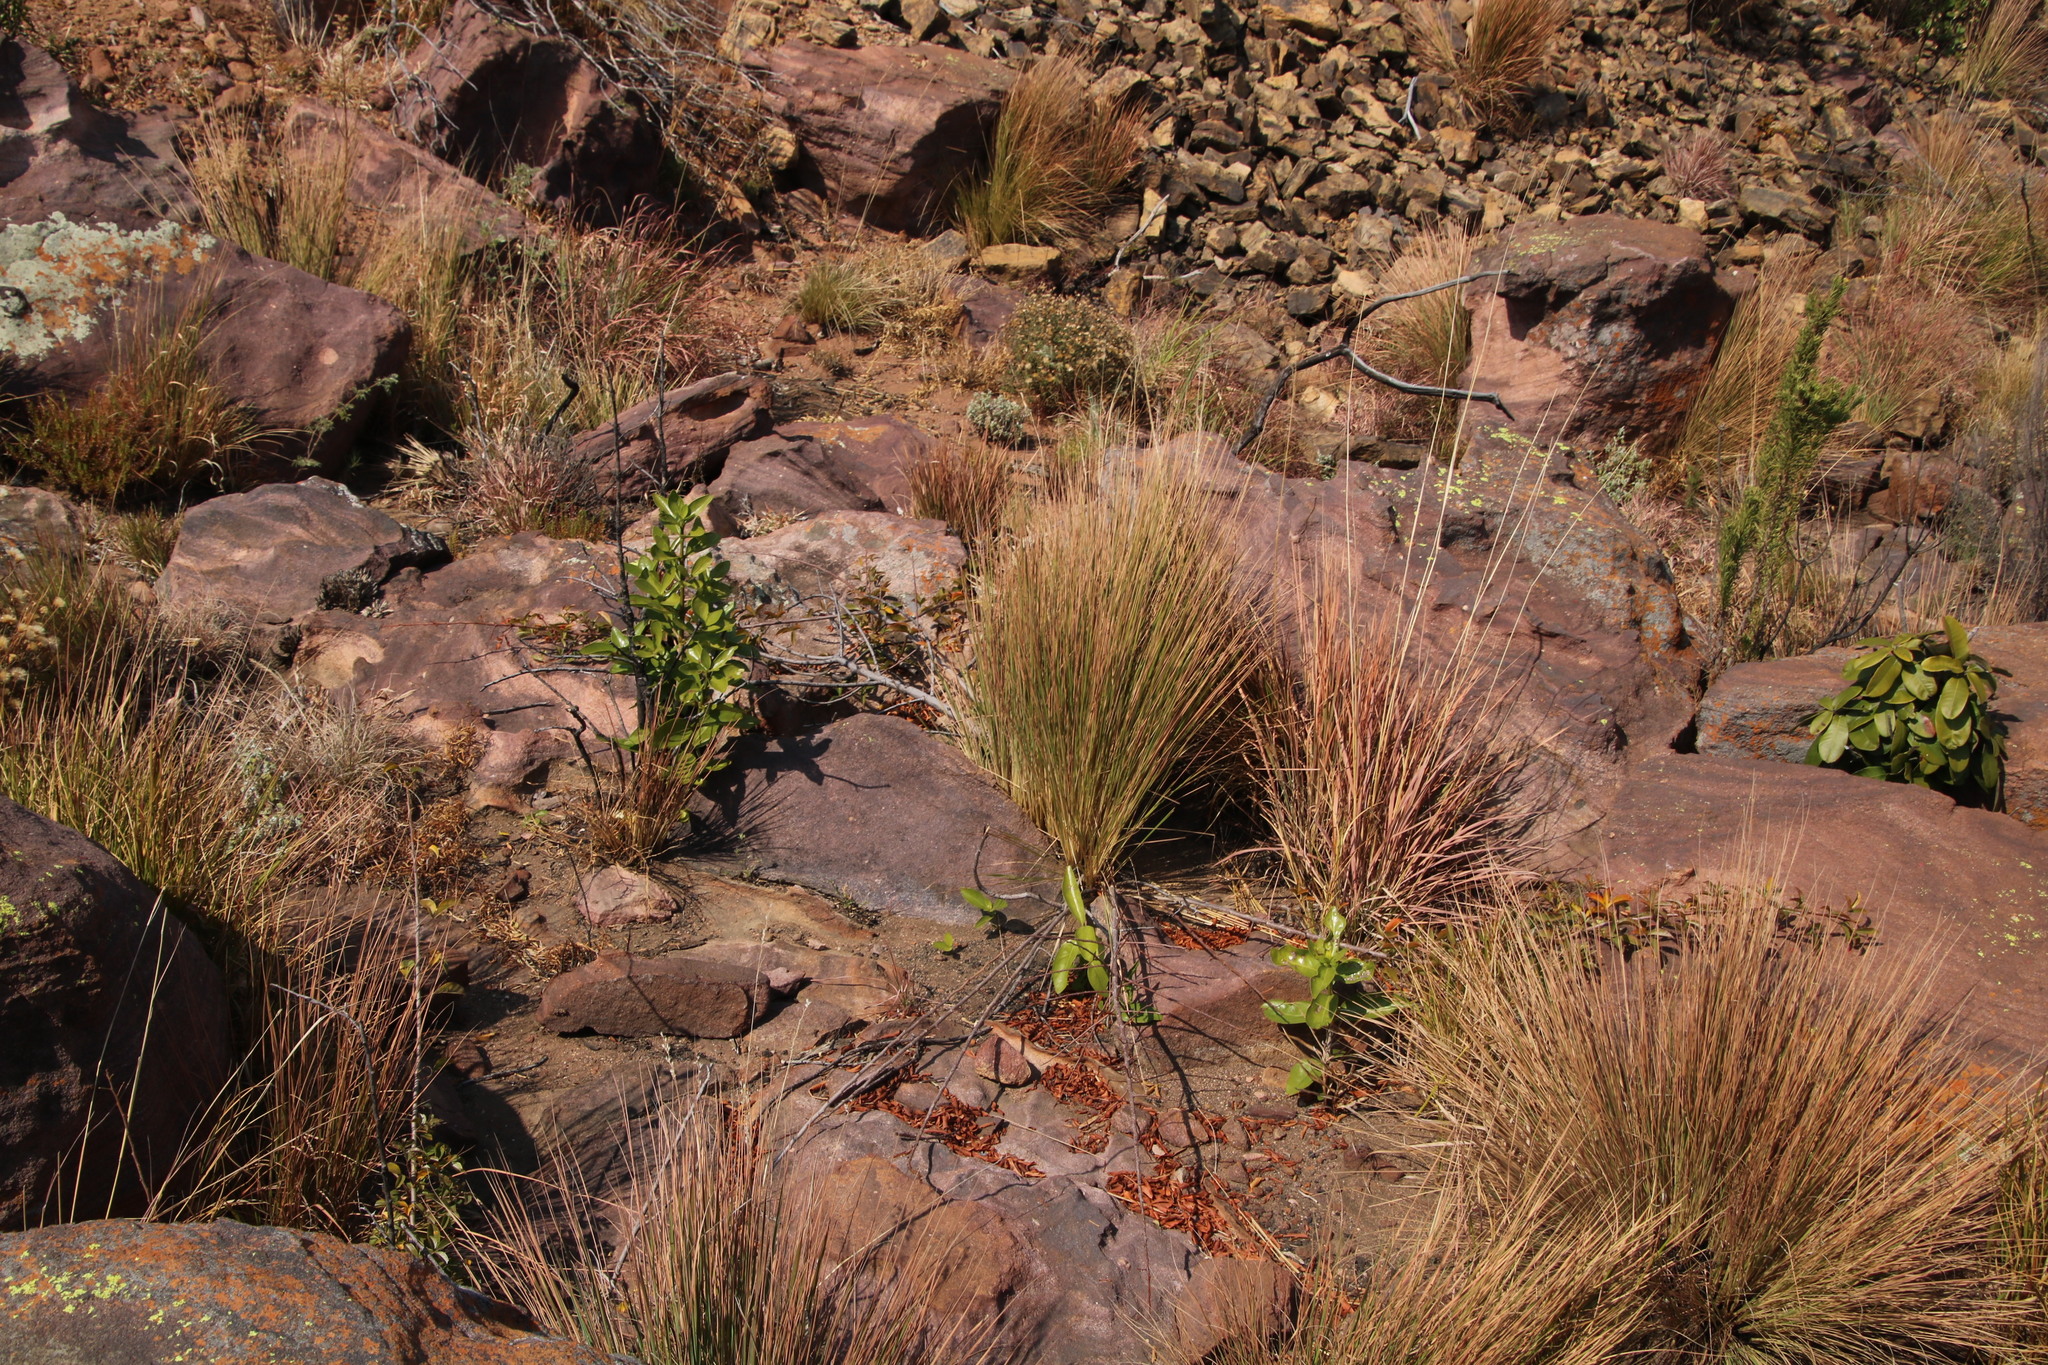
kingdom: Plantae
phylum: Tracheophyta
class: Magnoliopsida
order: Sapindales
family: Anacardiaceae
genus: Searsia
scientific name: Searsia rigida
